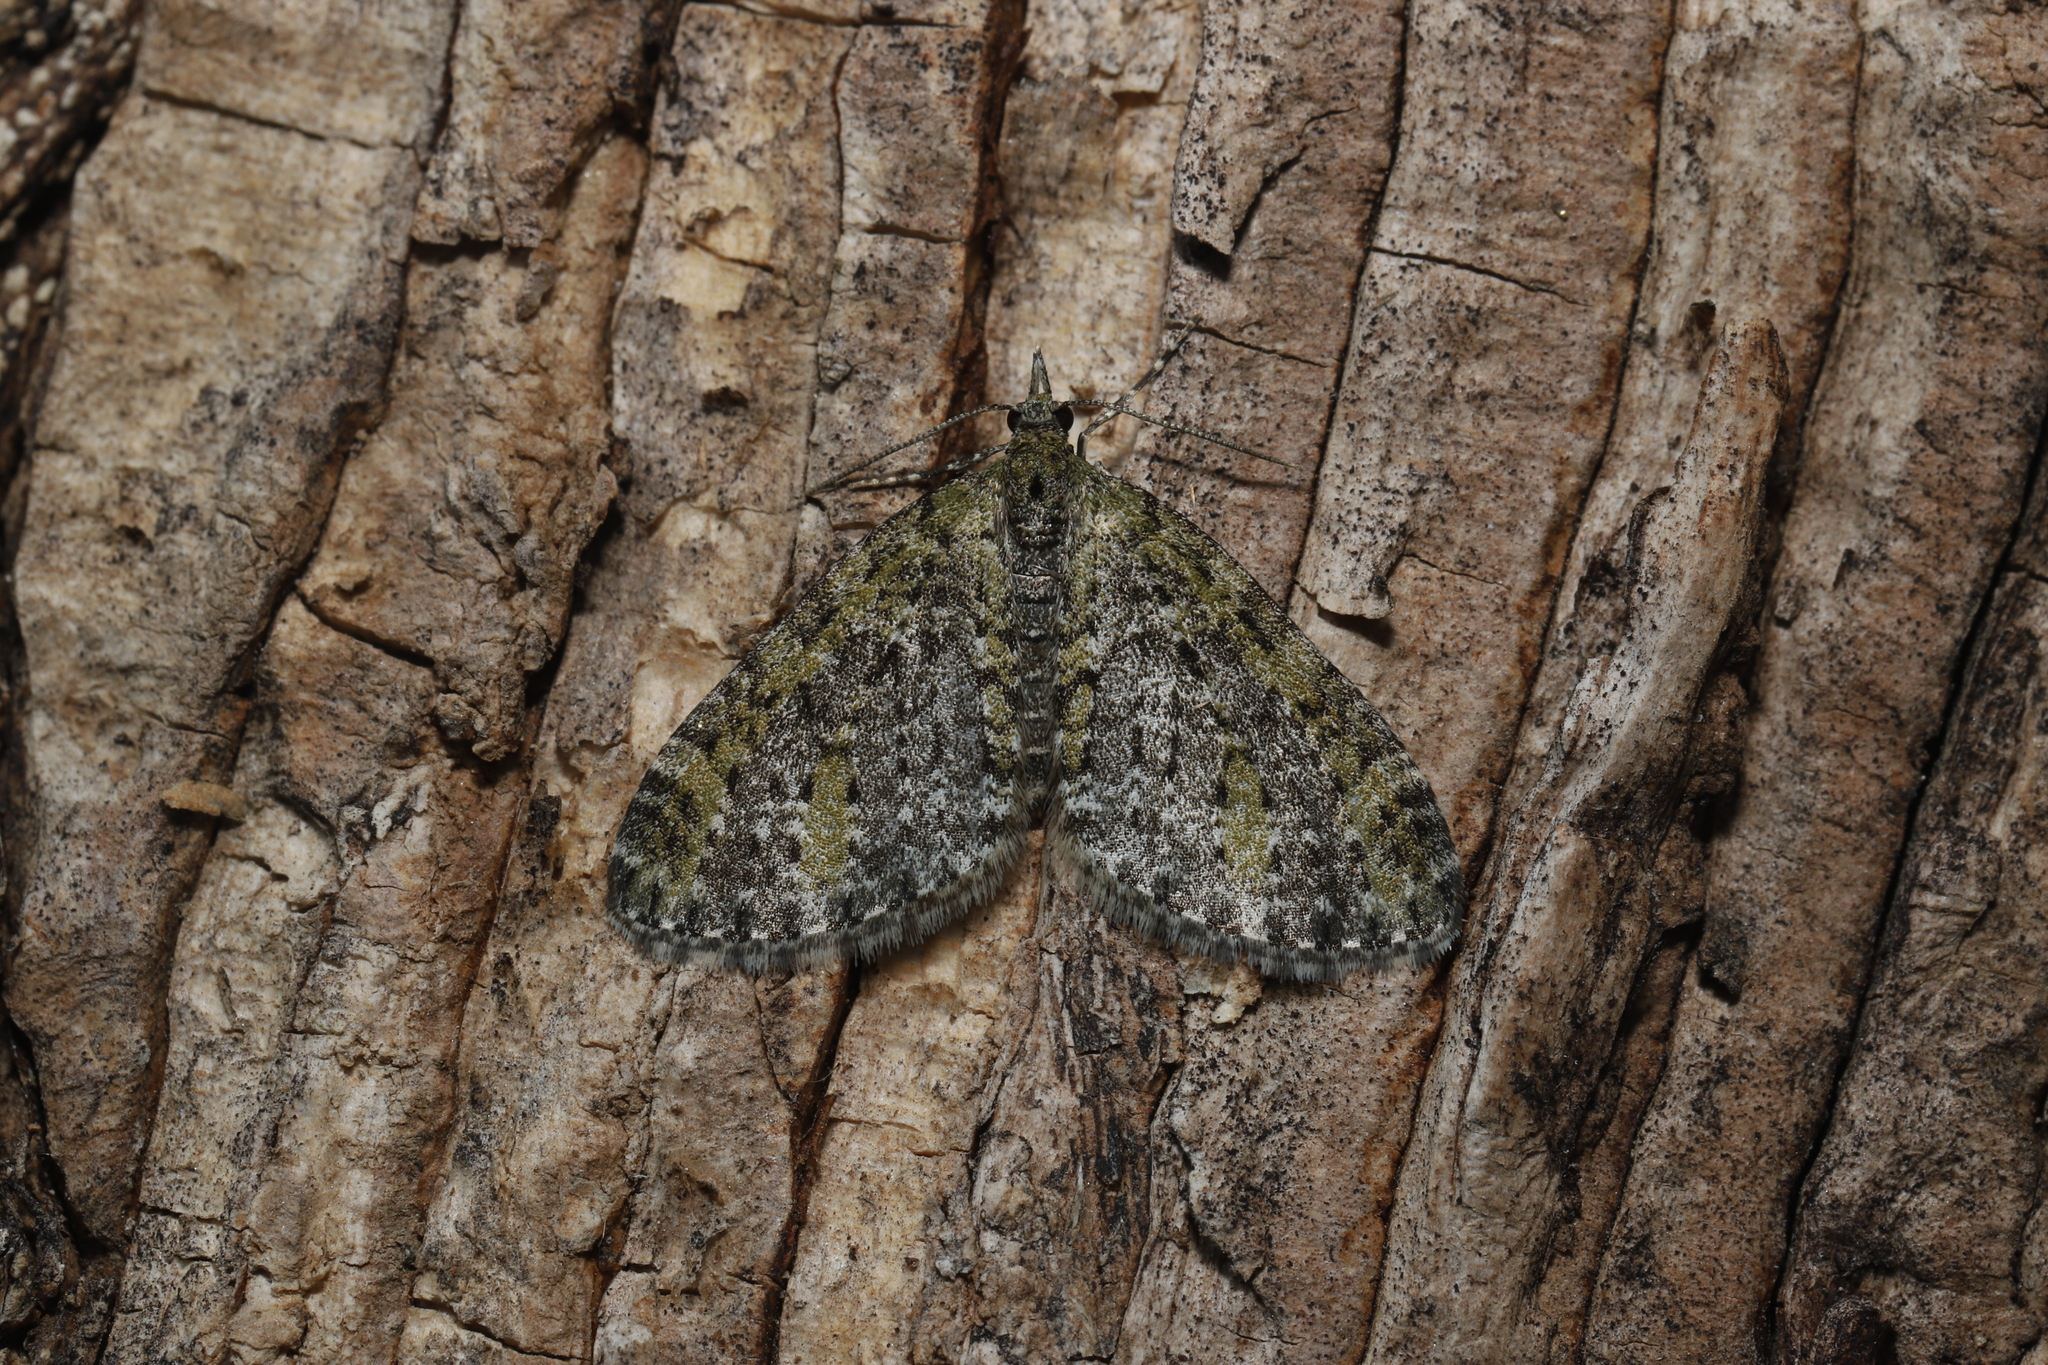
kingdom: Animalia
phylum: Arthropoda
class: Insecta
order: Lepidoptera
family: Geometridae
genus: Acasis
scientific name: Acasis viridata
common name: Olive-and-black carpet moth
